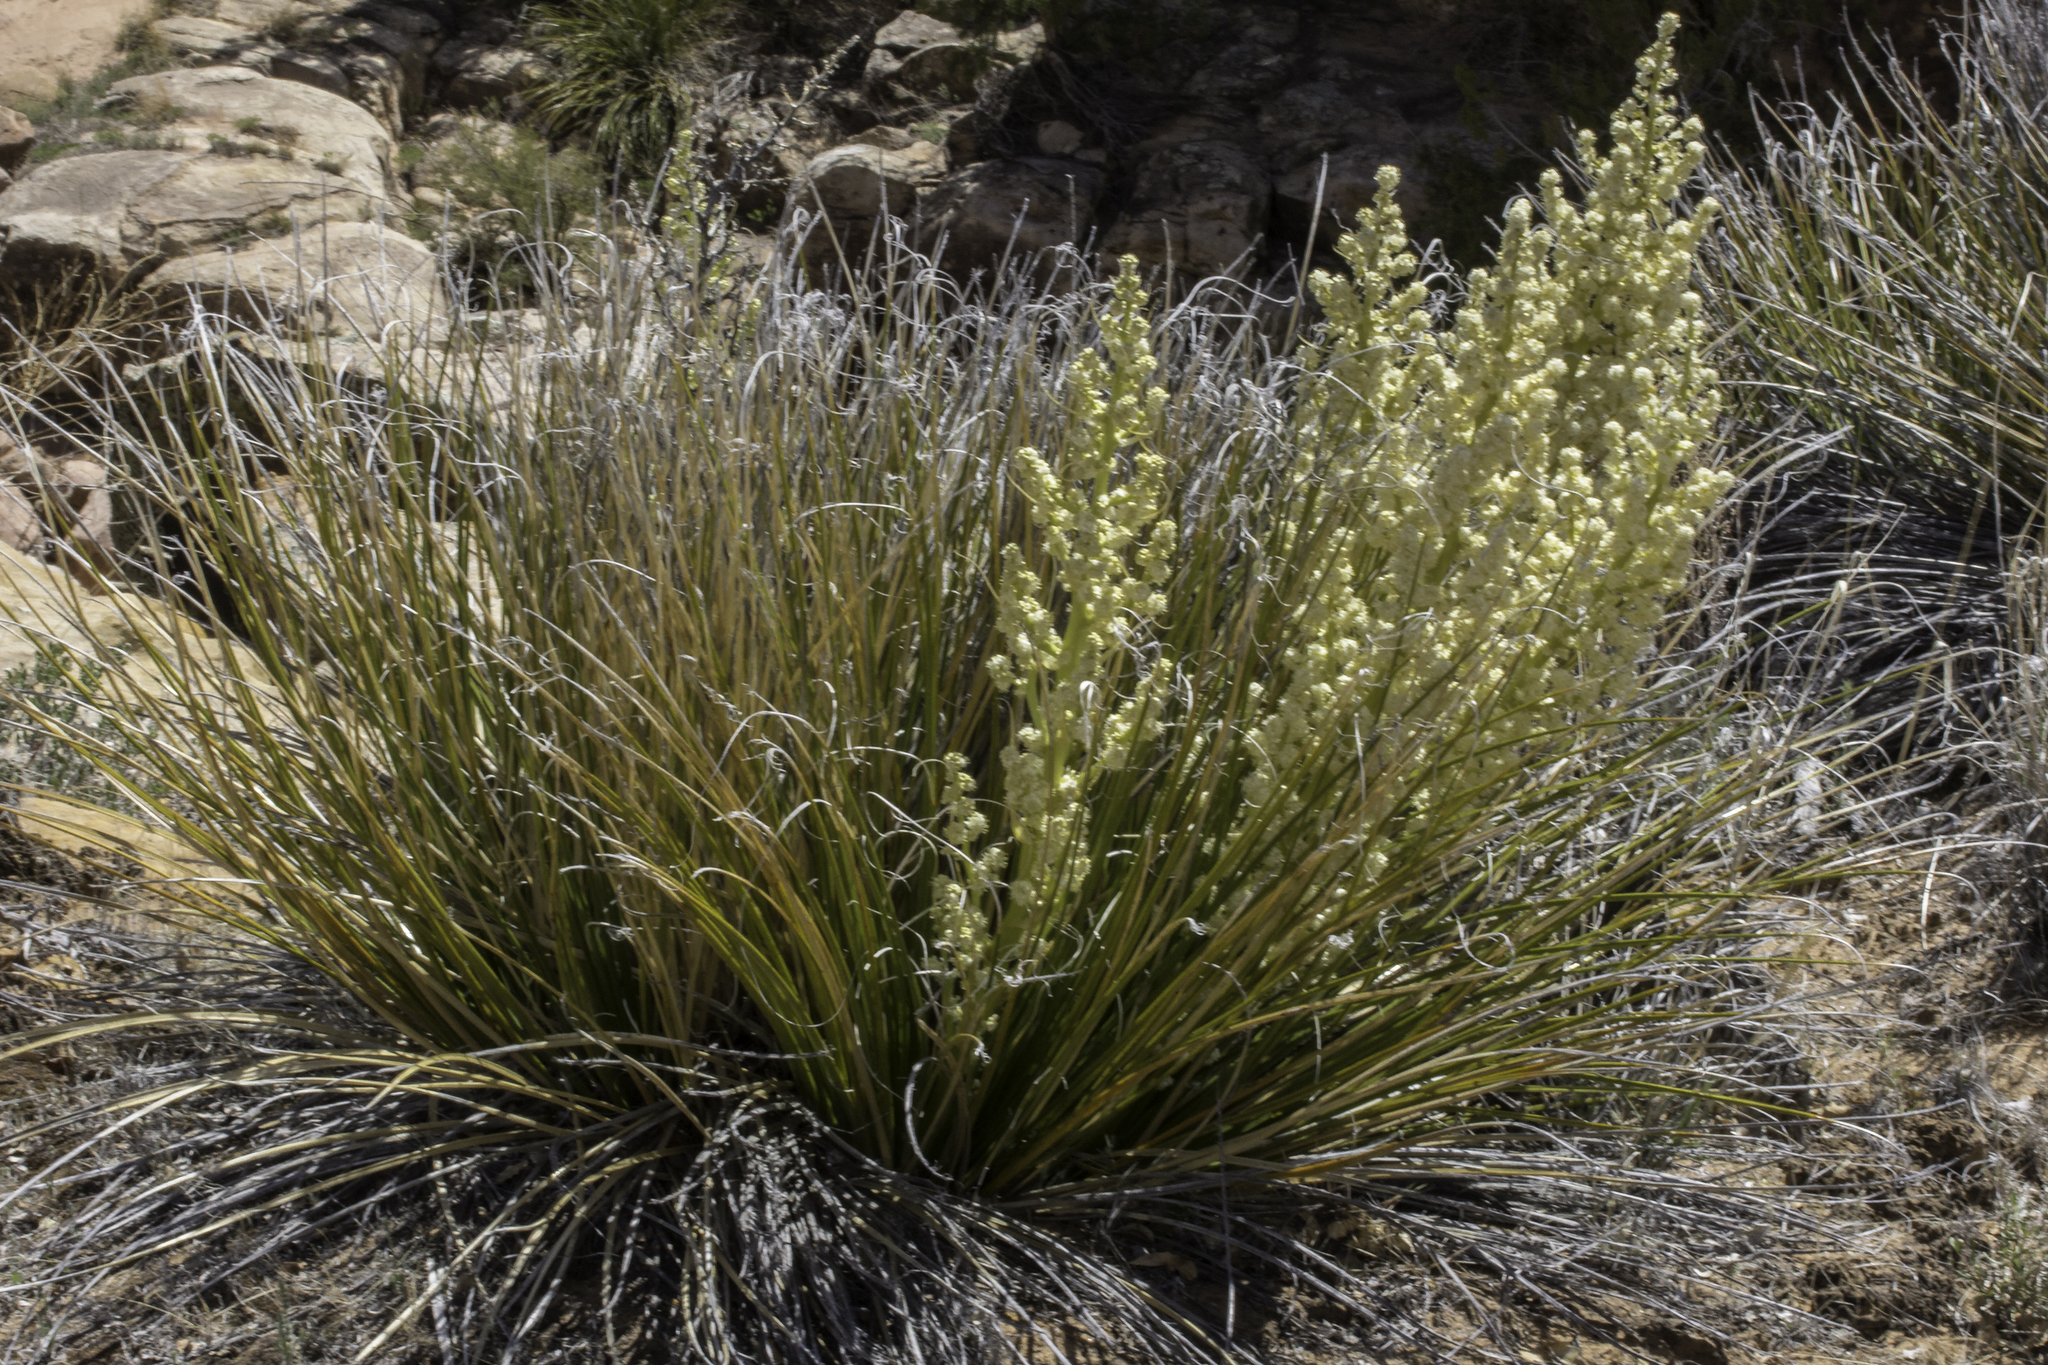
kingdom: Plantae
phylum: Tracheophyta
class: Liliopsida
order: Asparagales
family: Asparagaceae
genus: Nolina
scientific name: Nolina texana
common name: Texas sacahuiste
